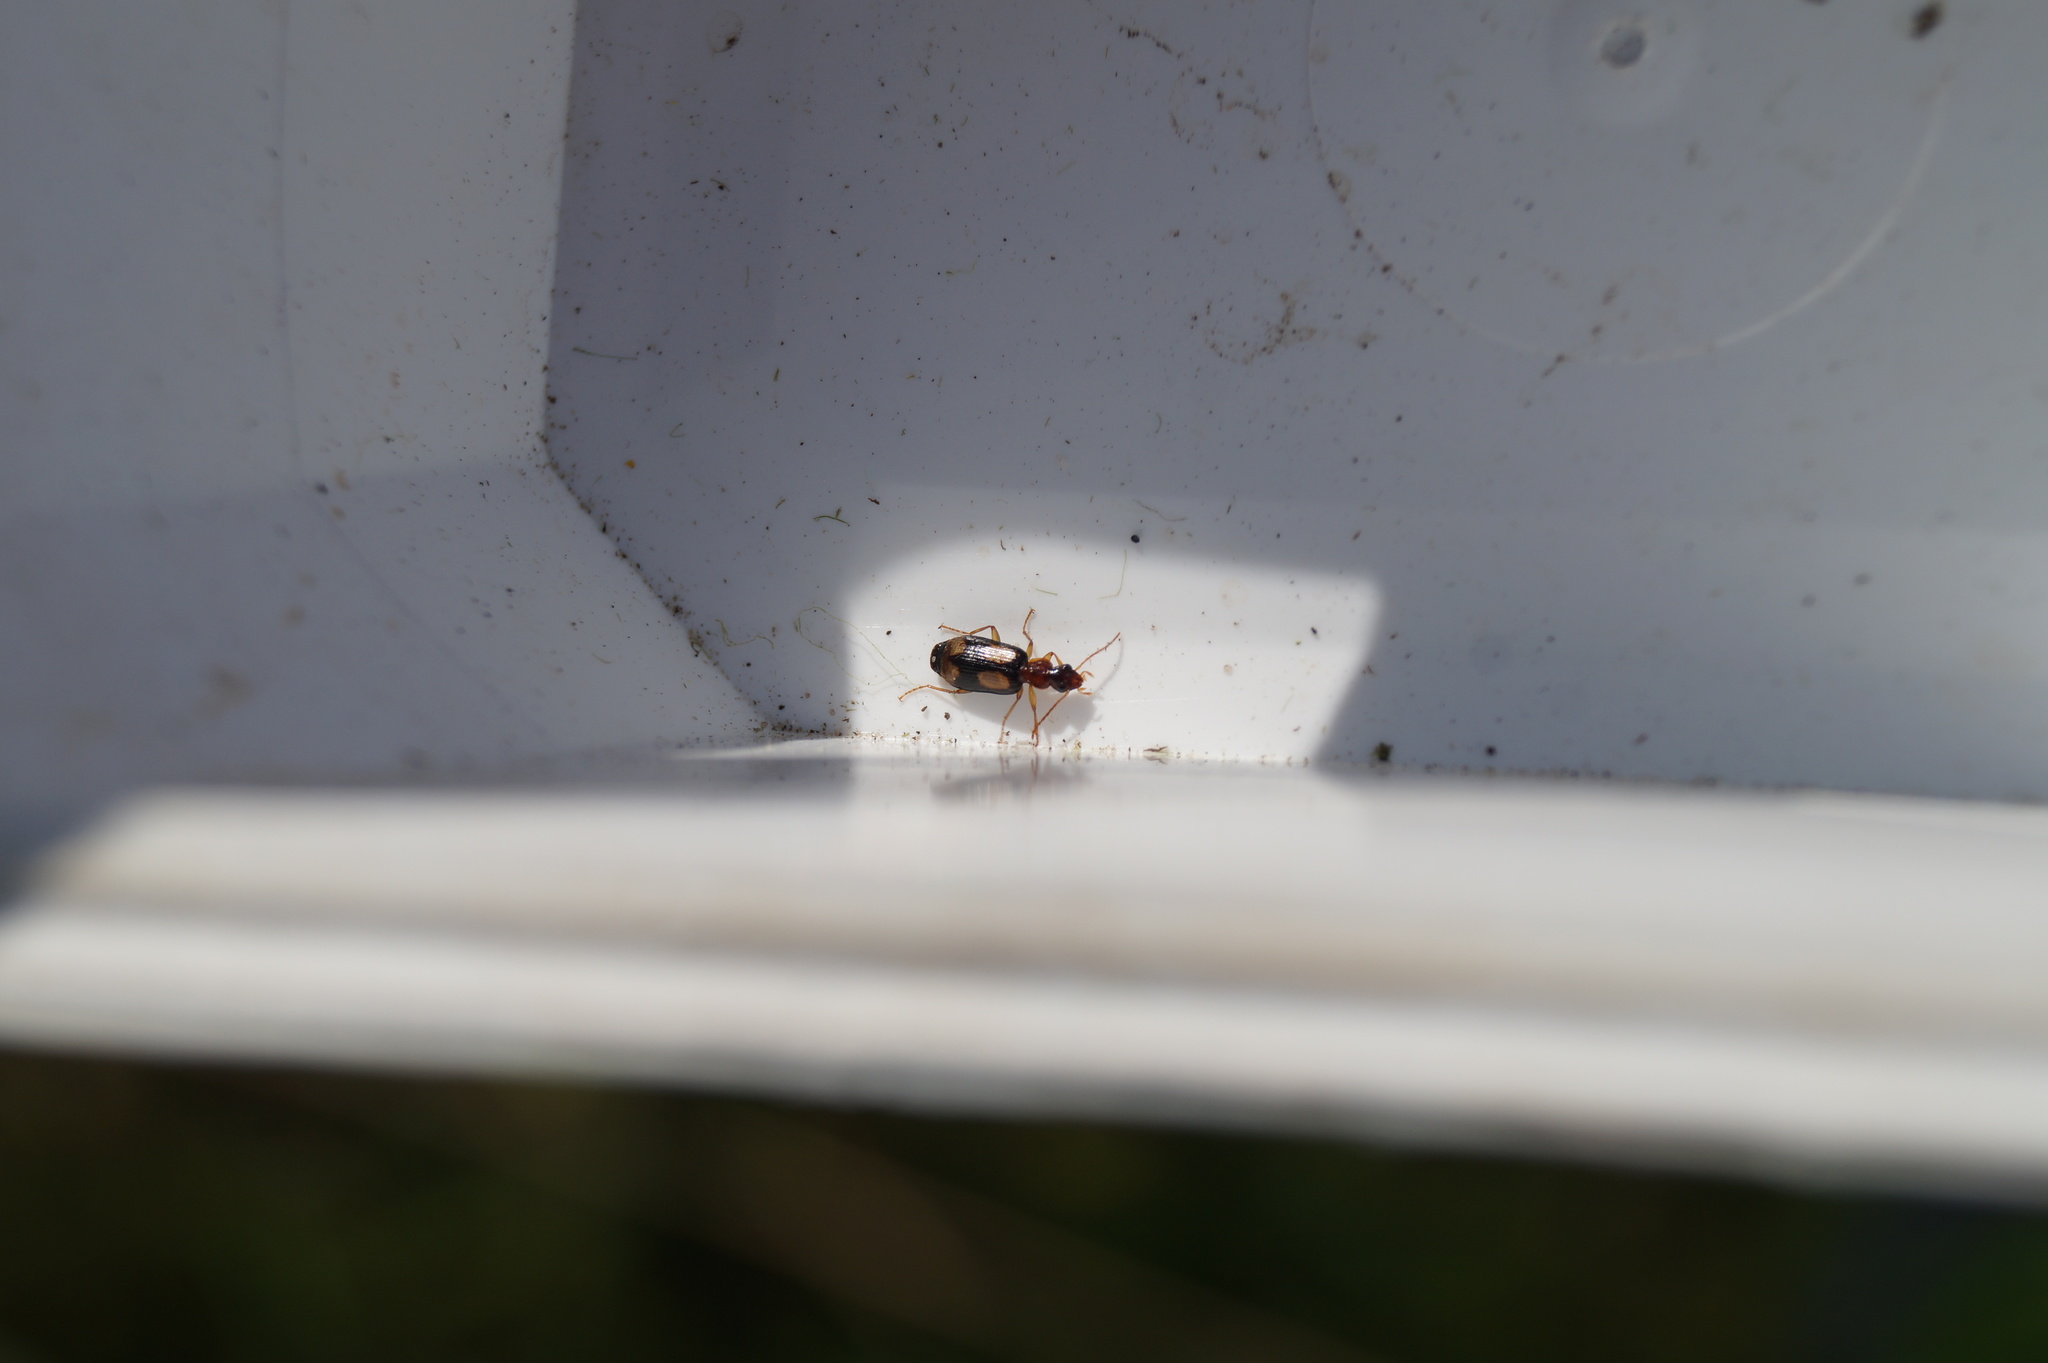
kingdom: Animalia
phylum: Arthropoda
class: Insecta
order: Coleoptera
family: Carabidae
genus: Dromius
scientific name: Dromius quadrimaculatus
